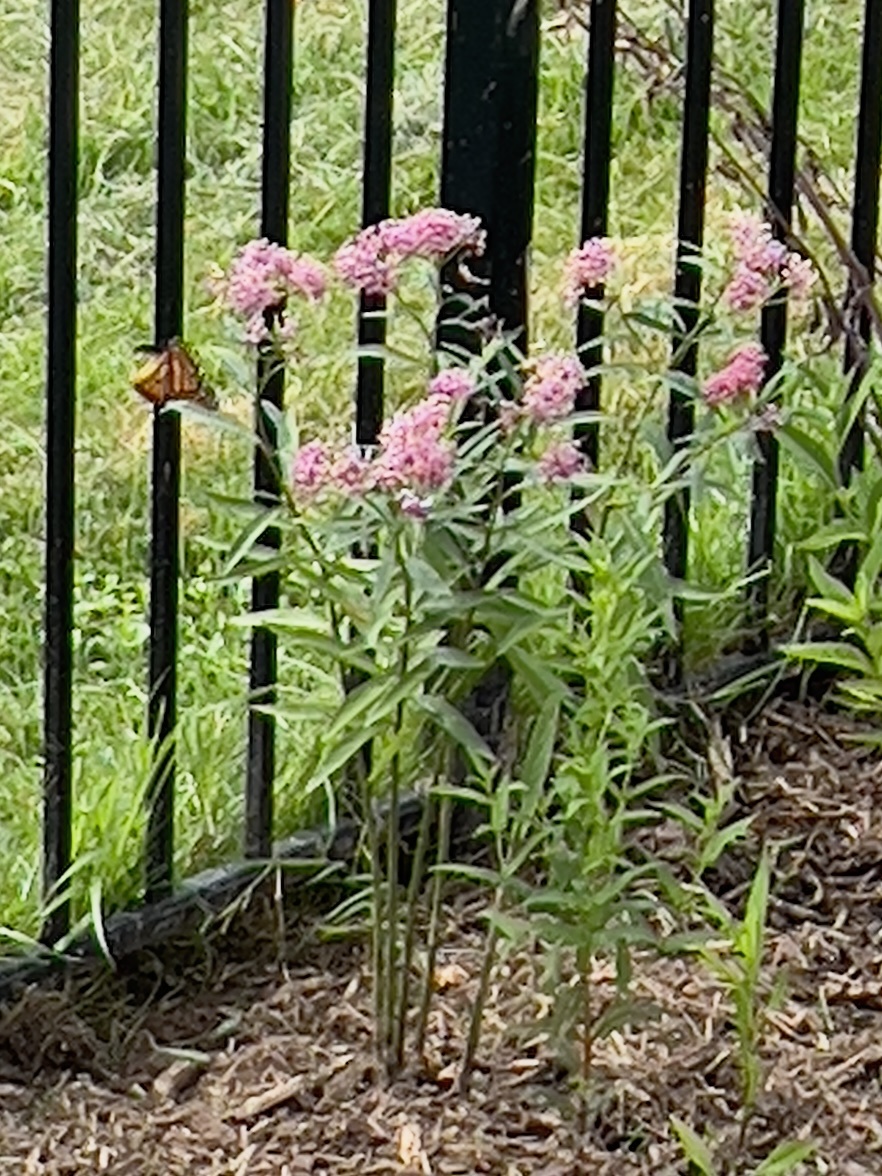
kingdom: Animalia
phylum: Arthropoda
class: Insecta
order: Lepidoptera
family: Nymphalidae
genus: Danaus
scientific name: Danaus plexippus
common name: Monarch
